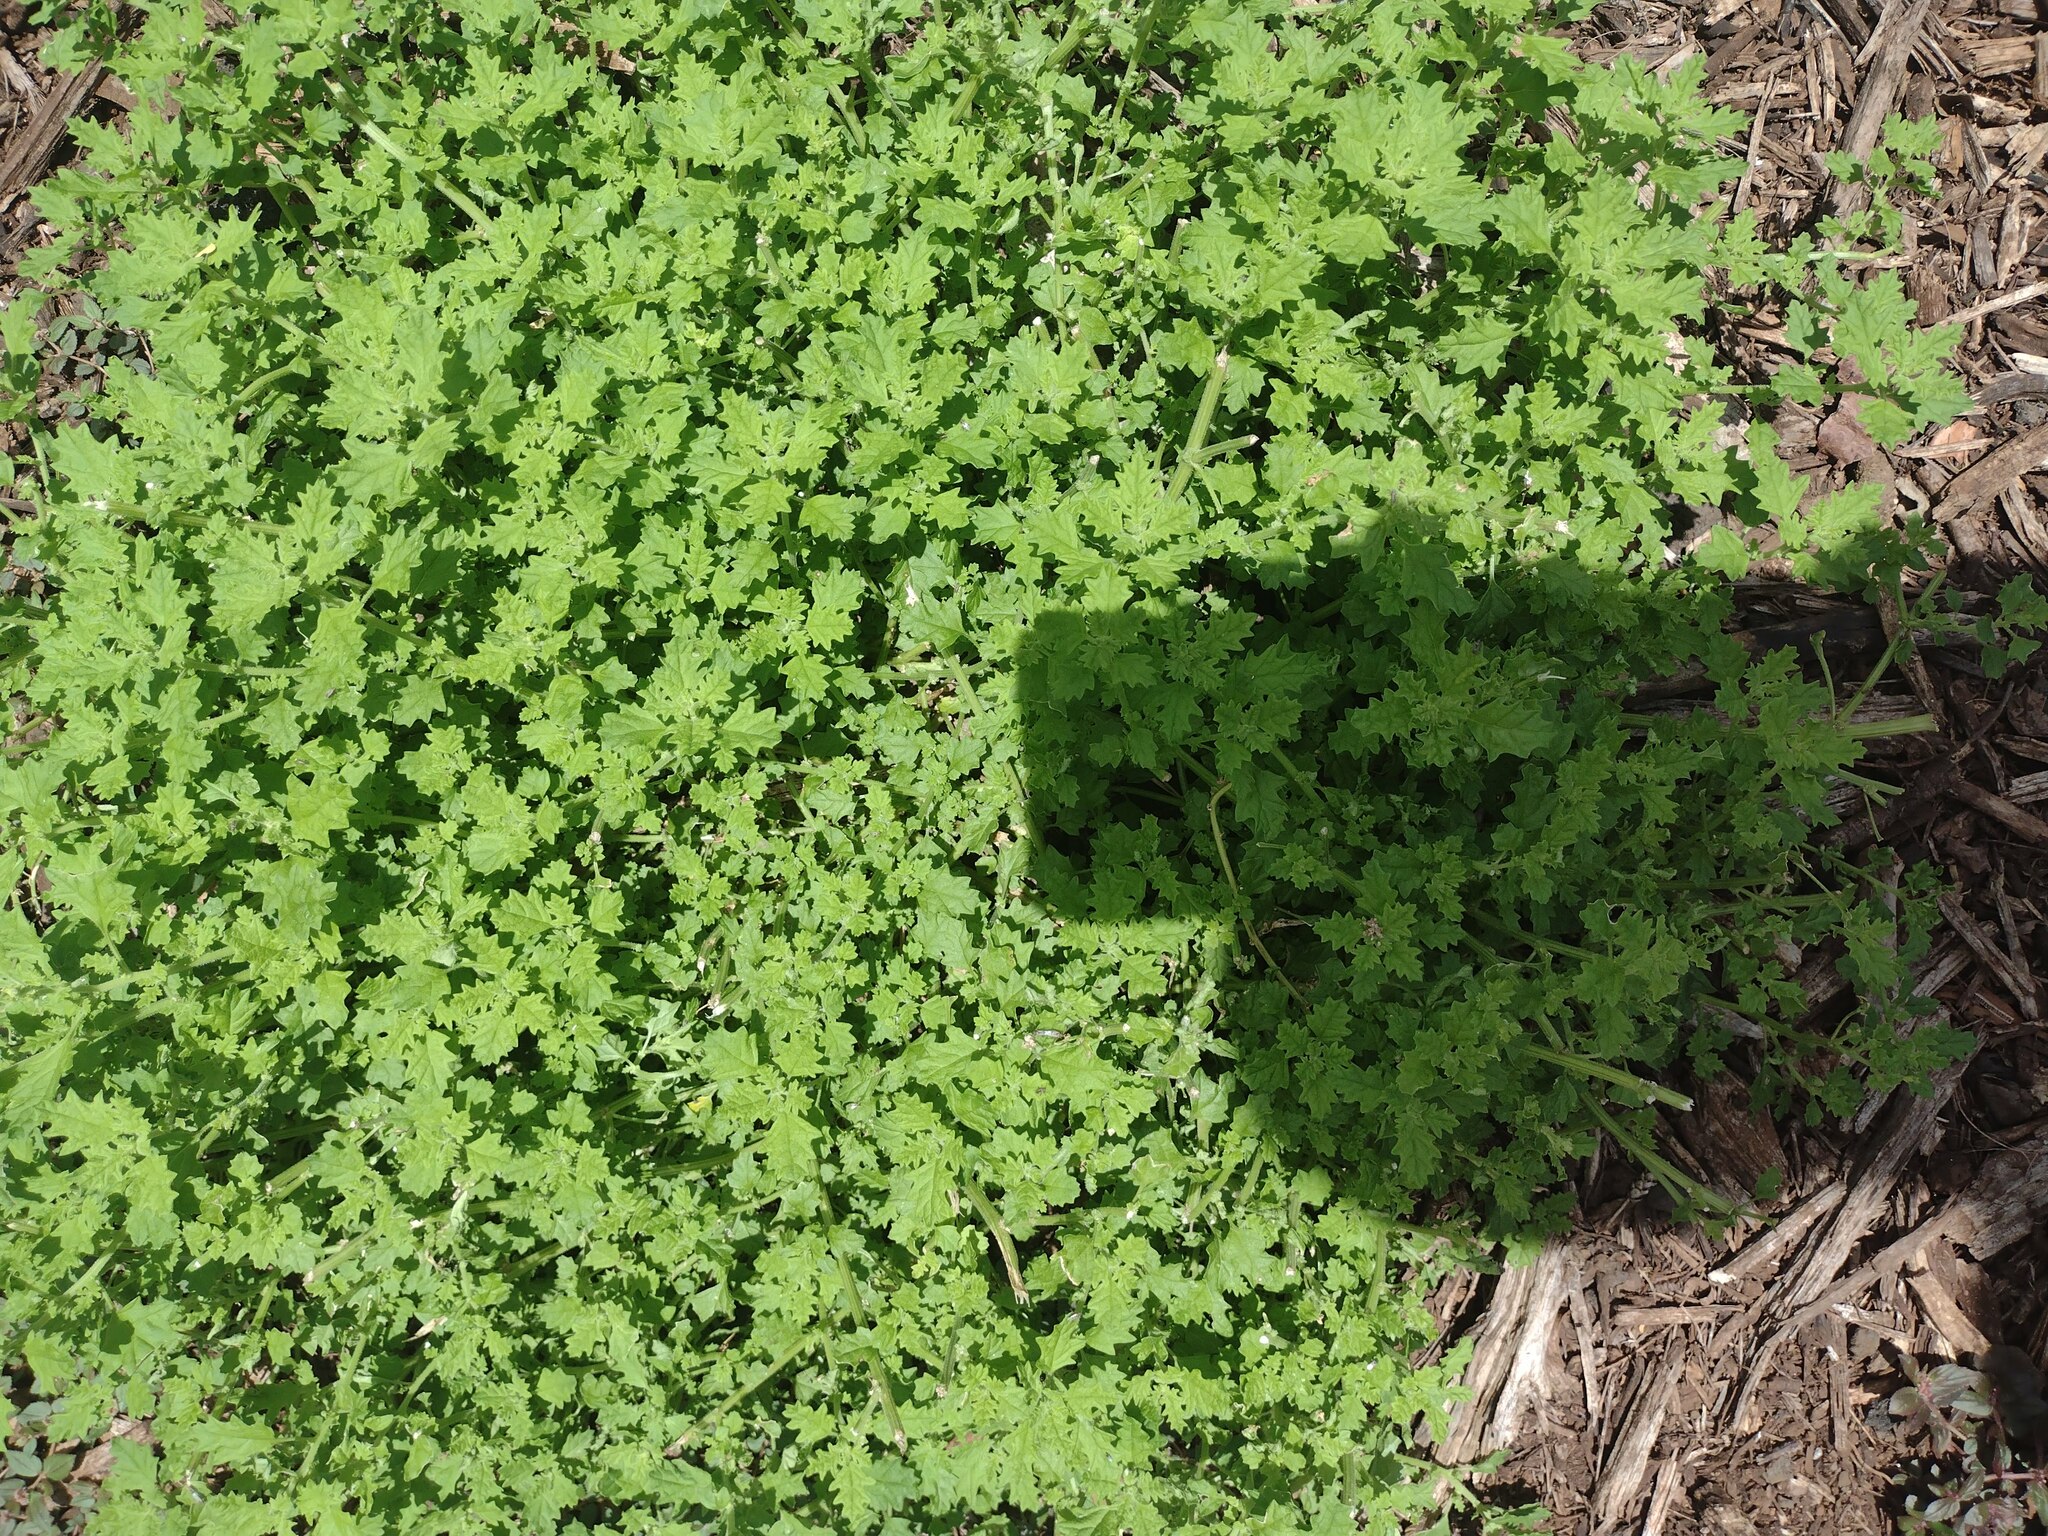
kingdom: Plantae
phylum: Tracheophyta
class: Magnoliopsida
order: Caryophyllales
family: Amaranthaceae
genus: Dysphania
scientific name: Dysphania carinata
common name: Keeled wormseed
